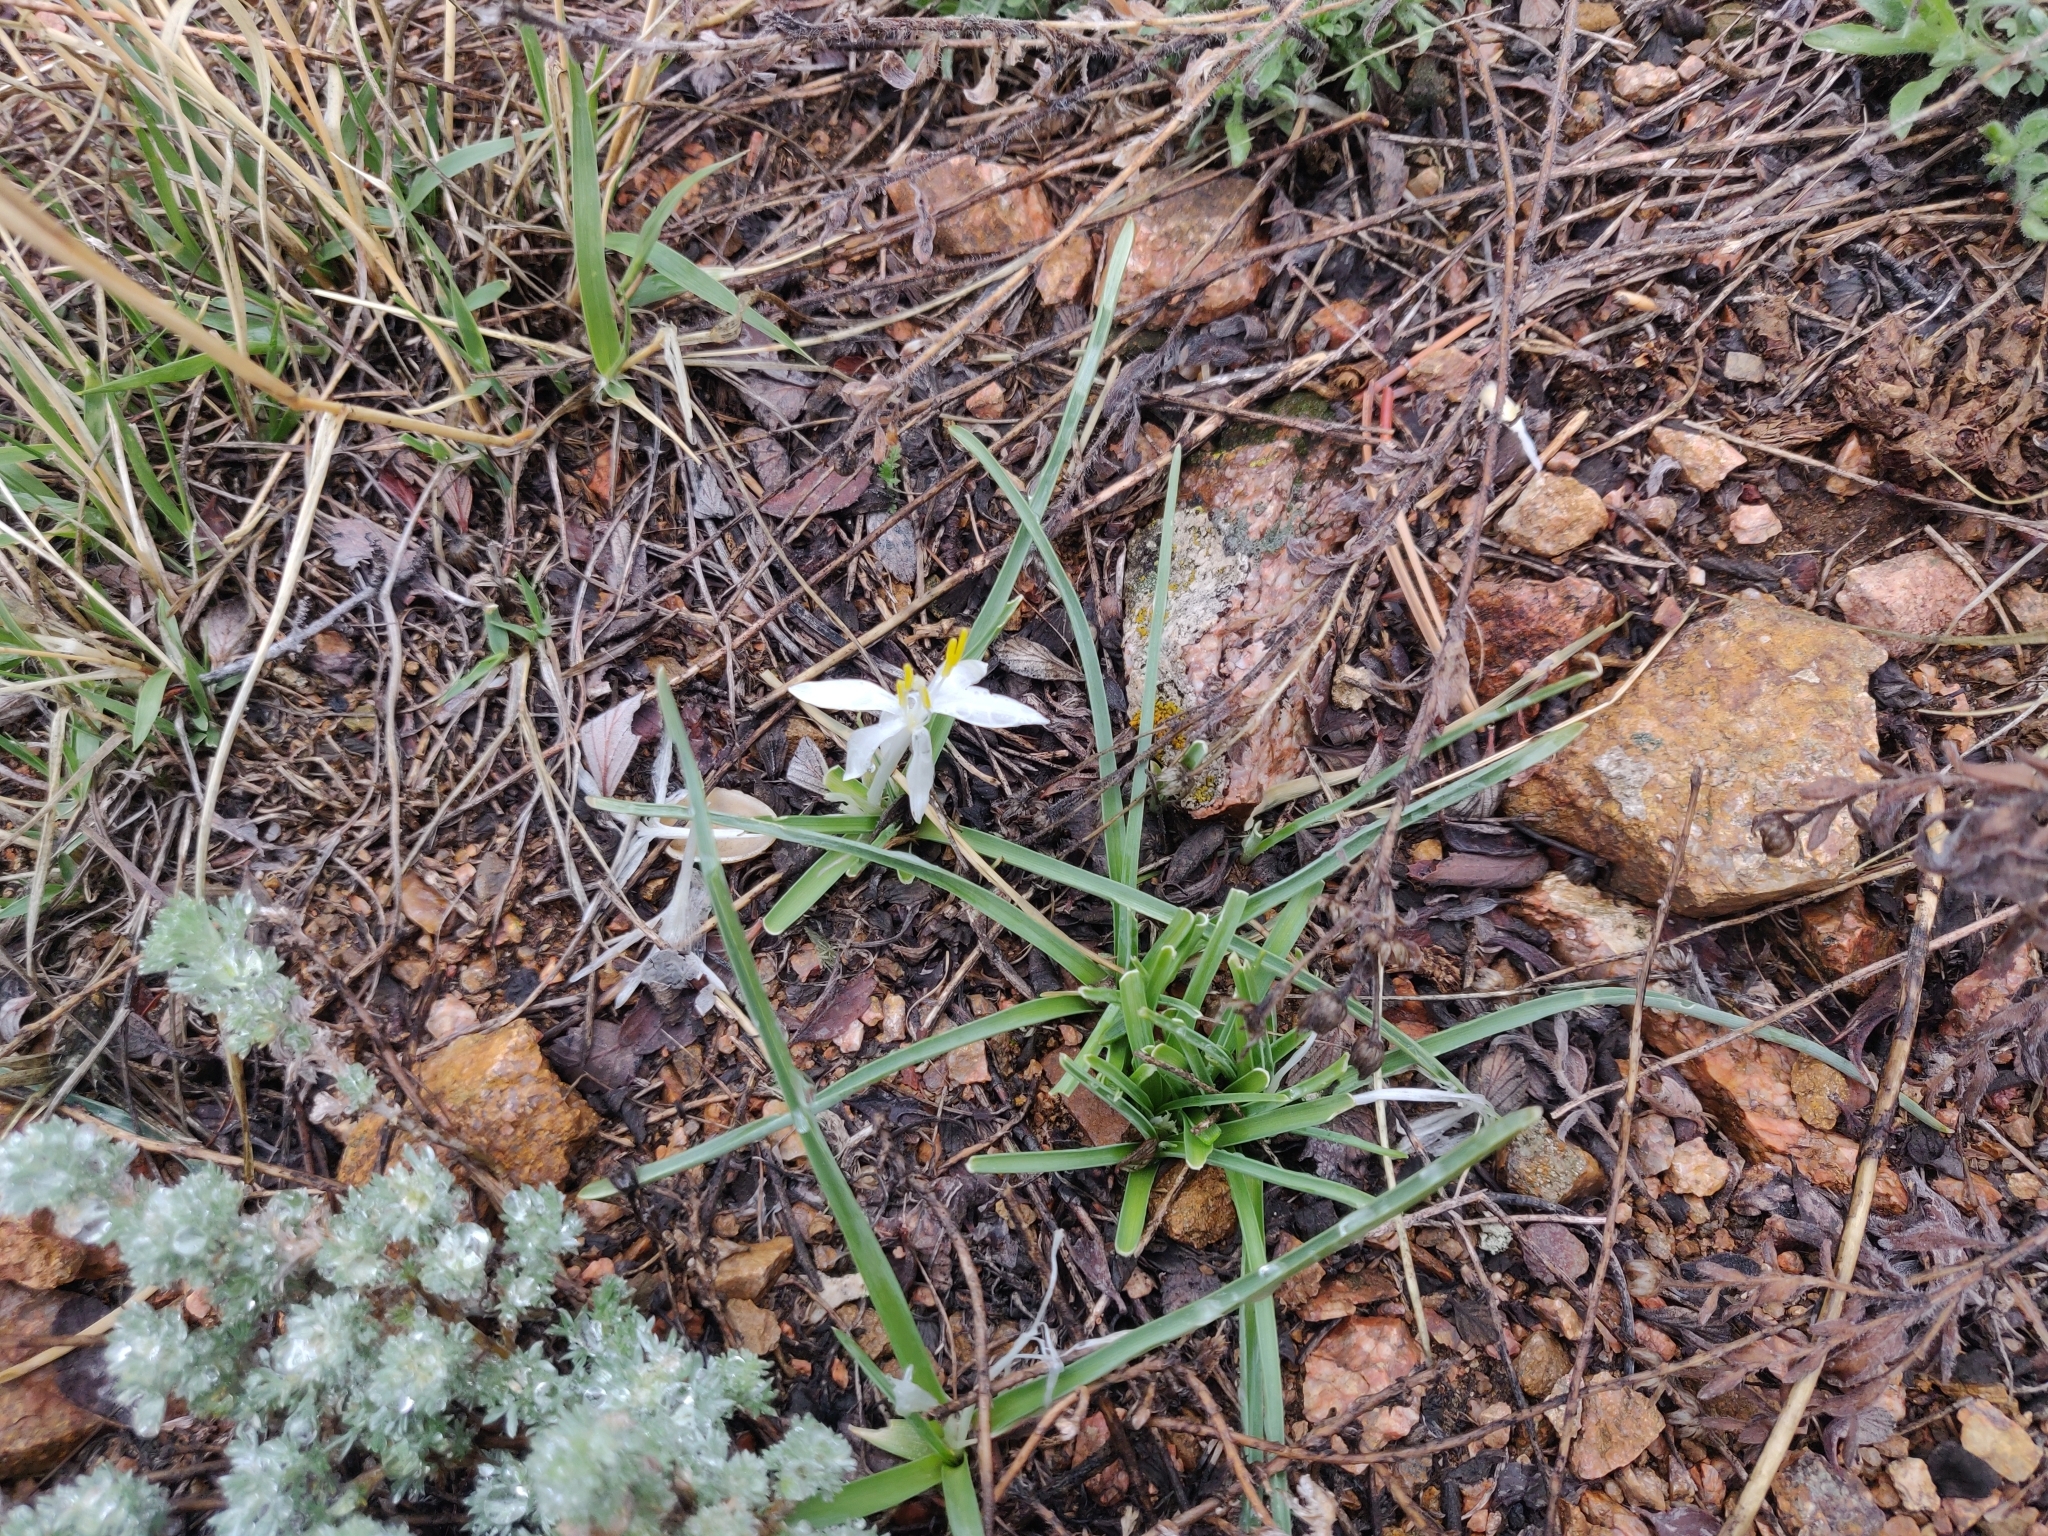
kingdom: Plantae
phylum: Tracheophyta
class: Liliopsida
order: Asparagales
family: Asparagaceae
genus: Leucocrinum
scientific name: Leucocrinum montanum
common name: Mountain-lily
